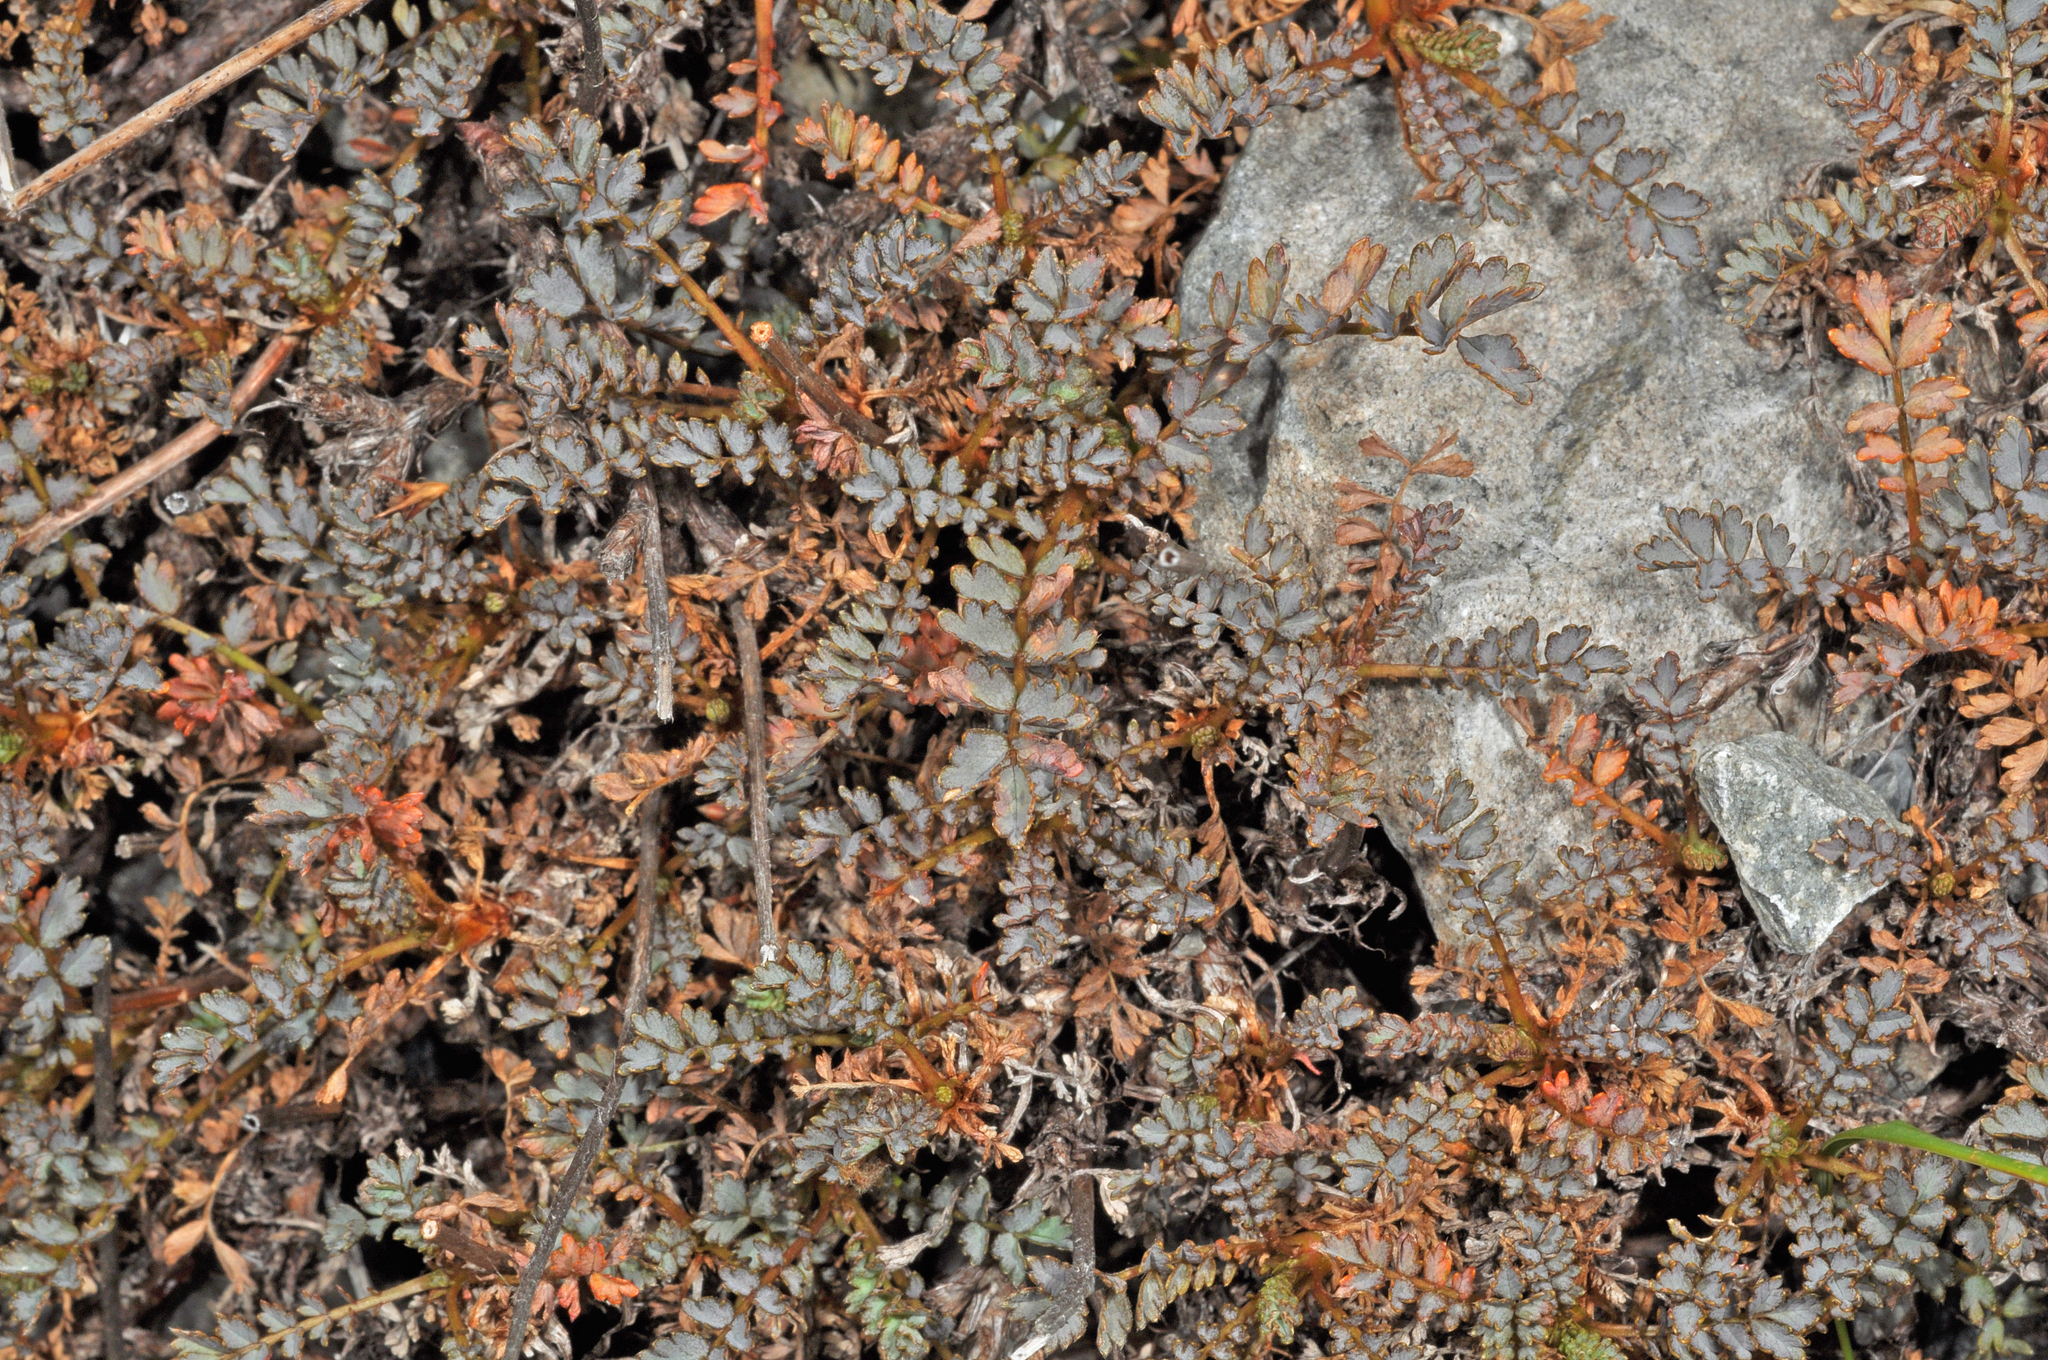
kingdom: Plantae
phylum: Tracheophyta
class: Magnoliopsida
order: Rosales
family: Rosaceae
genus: Acaena
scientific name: Acaena saccaticupula
